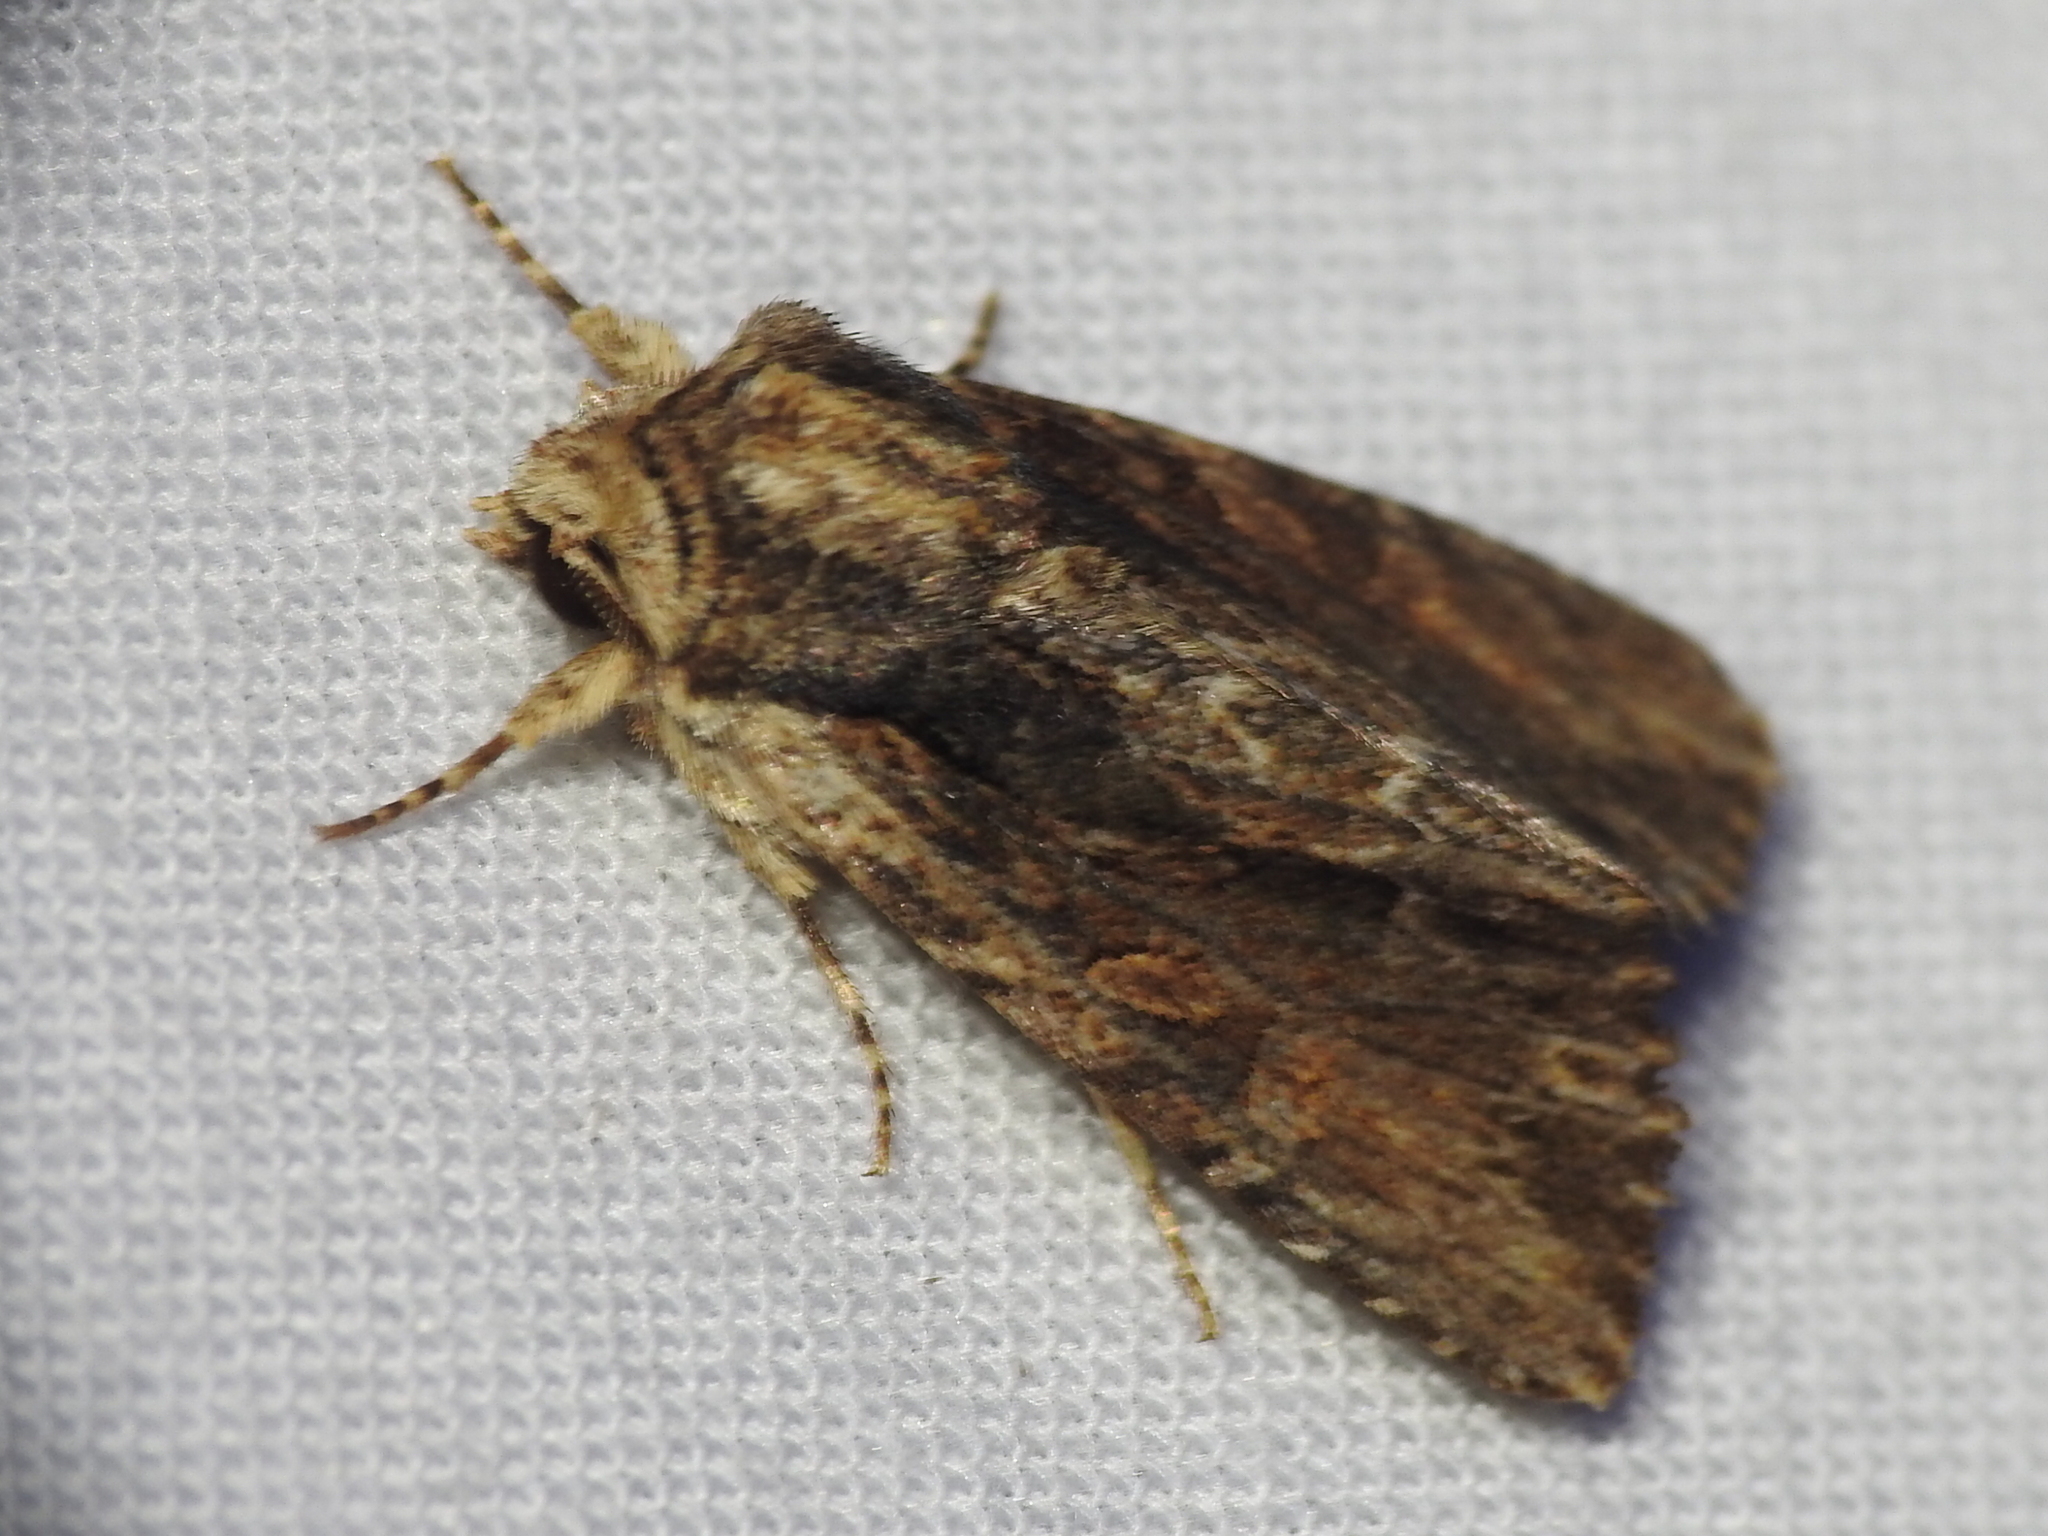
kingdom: Animalia
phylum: Arthropoda
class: Insecta
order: Lepidoptera
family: Noctuidae
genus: Achatia
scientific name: Achatia mucens
